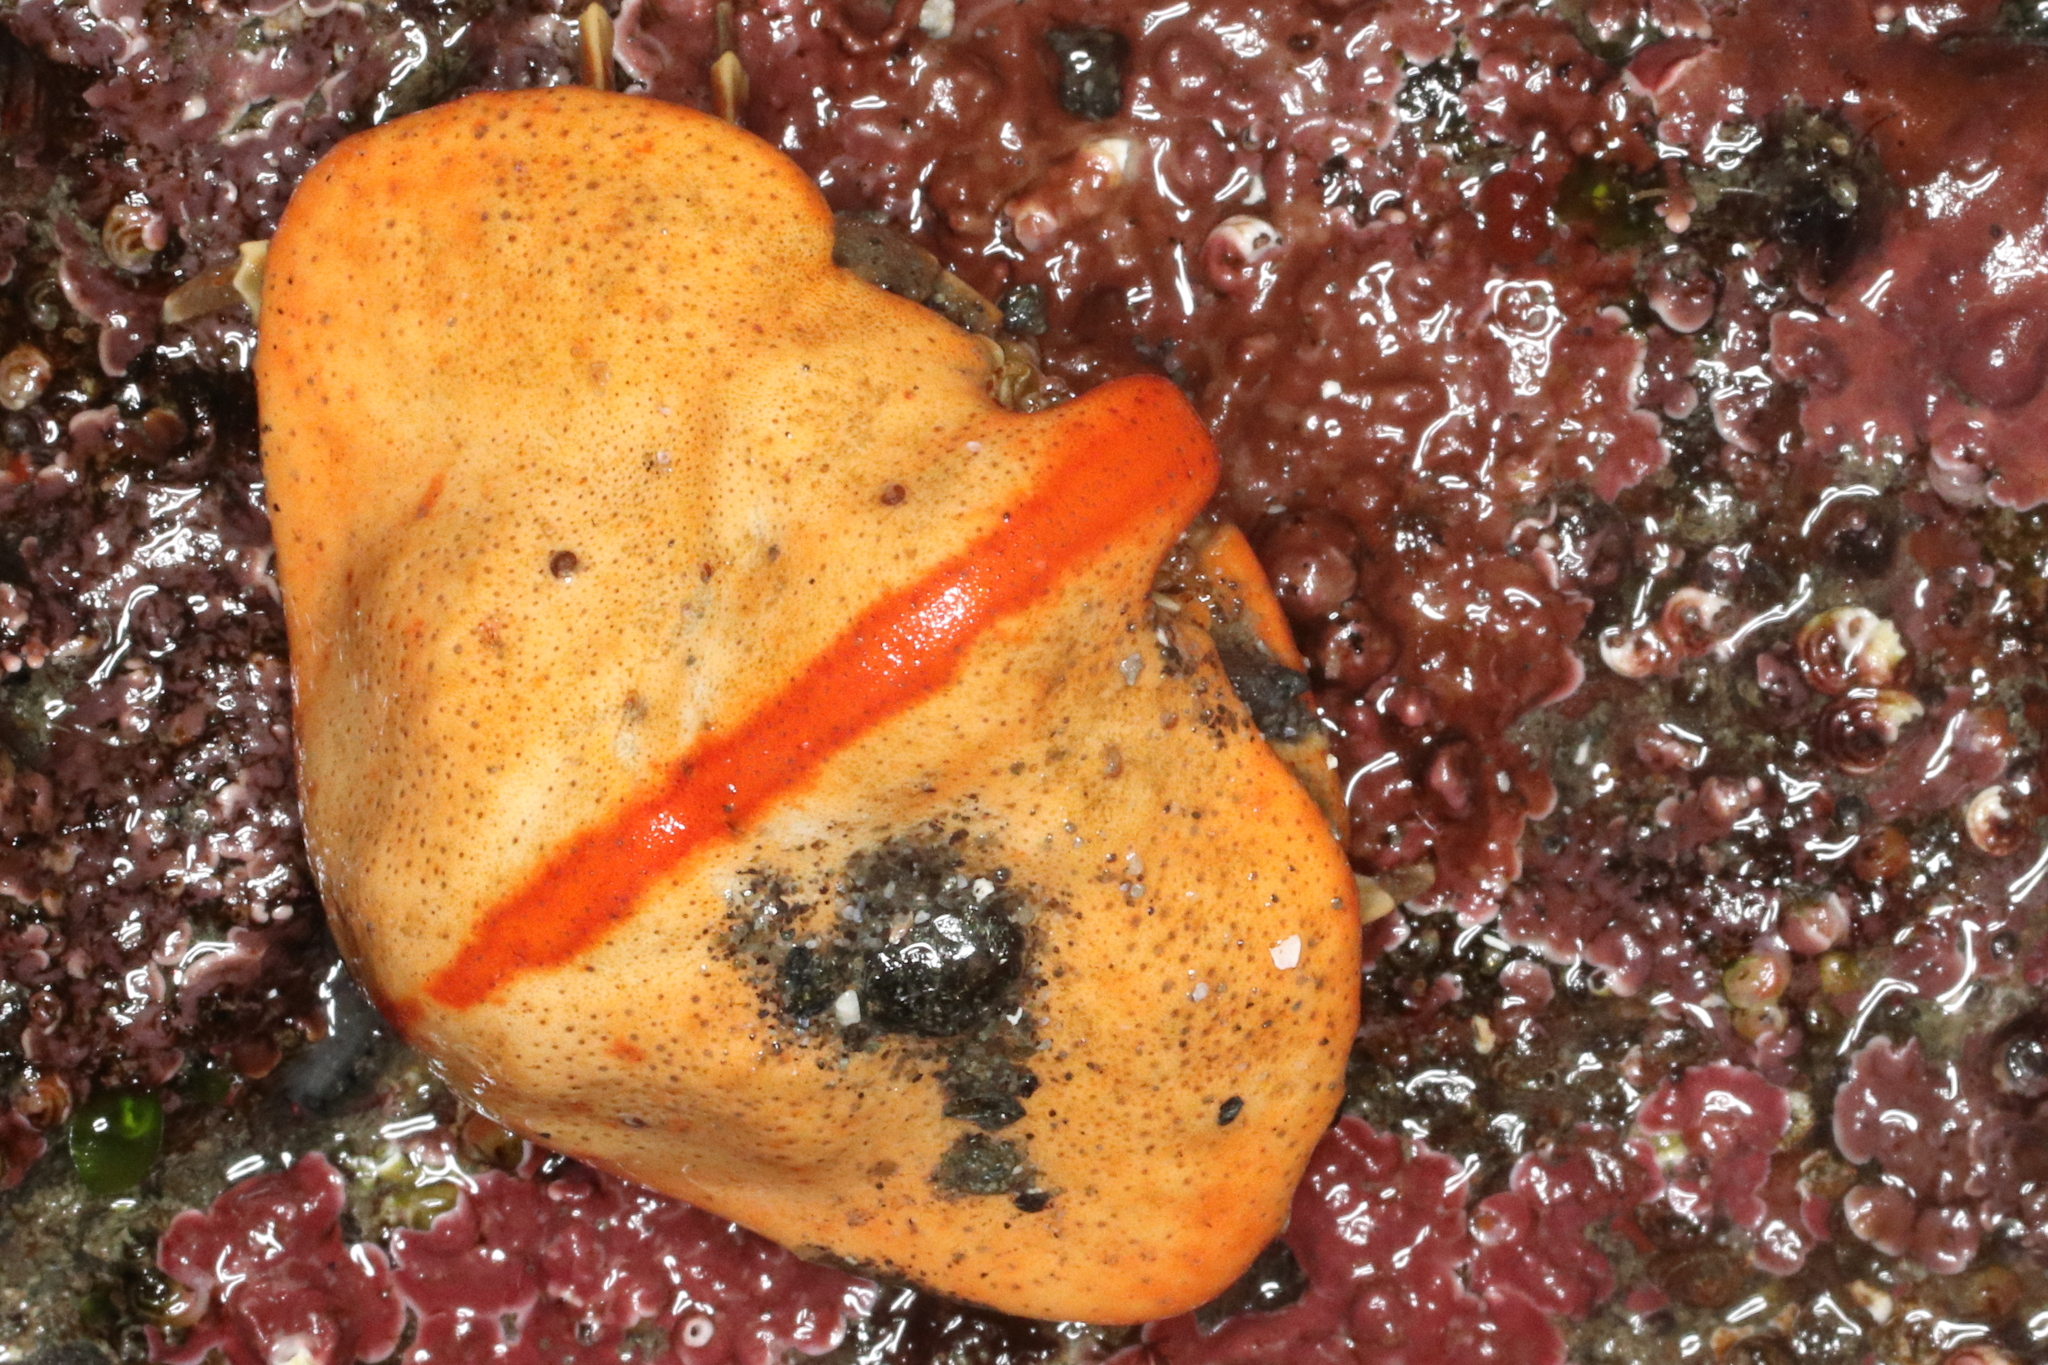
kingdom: Animalia
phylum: Arthropoda
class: Malacostraca
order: Decapoda
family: Lithodidae
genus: Cryptolithodes
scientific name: Cryptolithodes typicus
